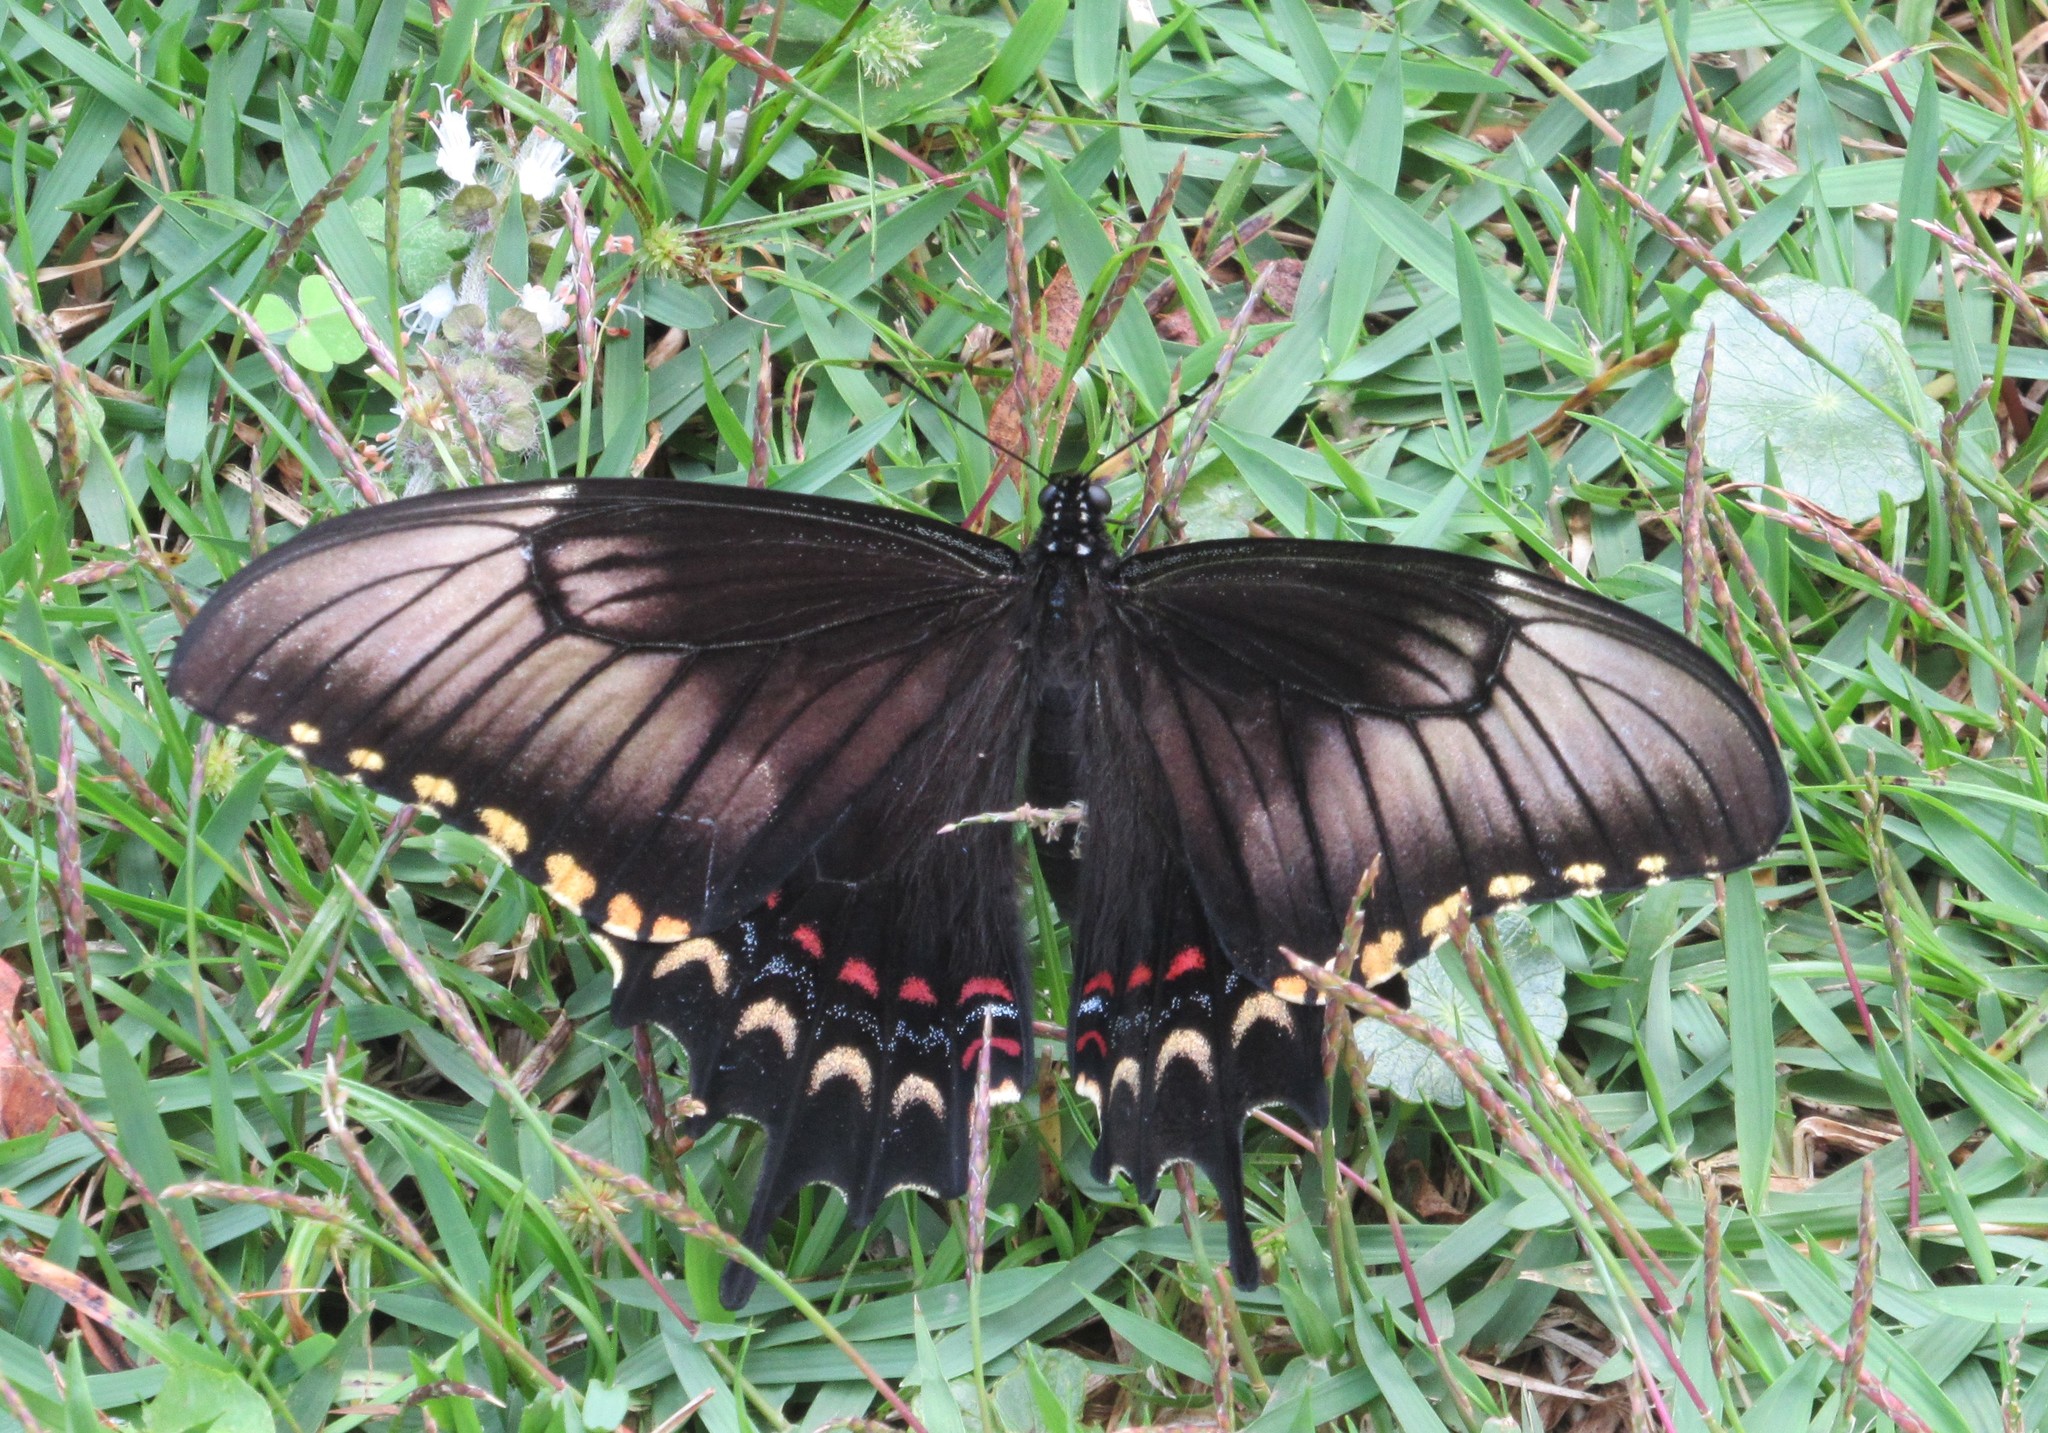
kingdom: Animalia
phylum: Arthropoda
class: Insecta
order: Lepidoptera
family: Papilionidae
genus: Papilio
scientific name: Papilio astyalus
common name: Astyalus swallowtail
